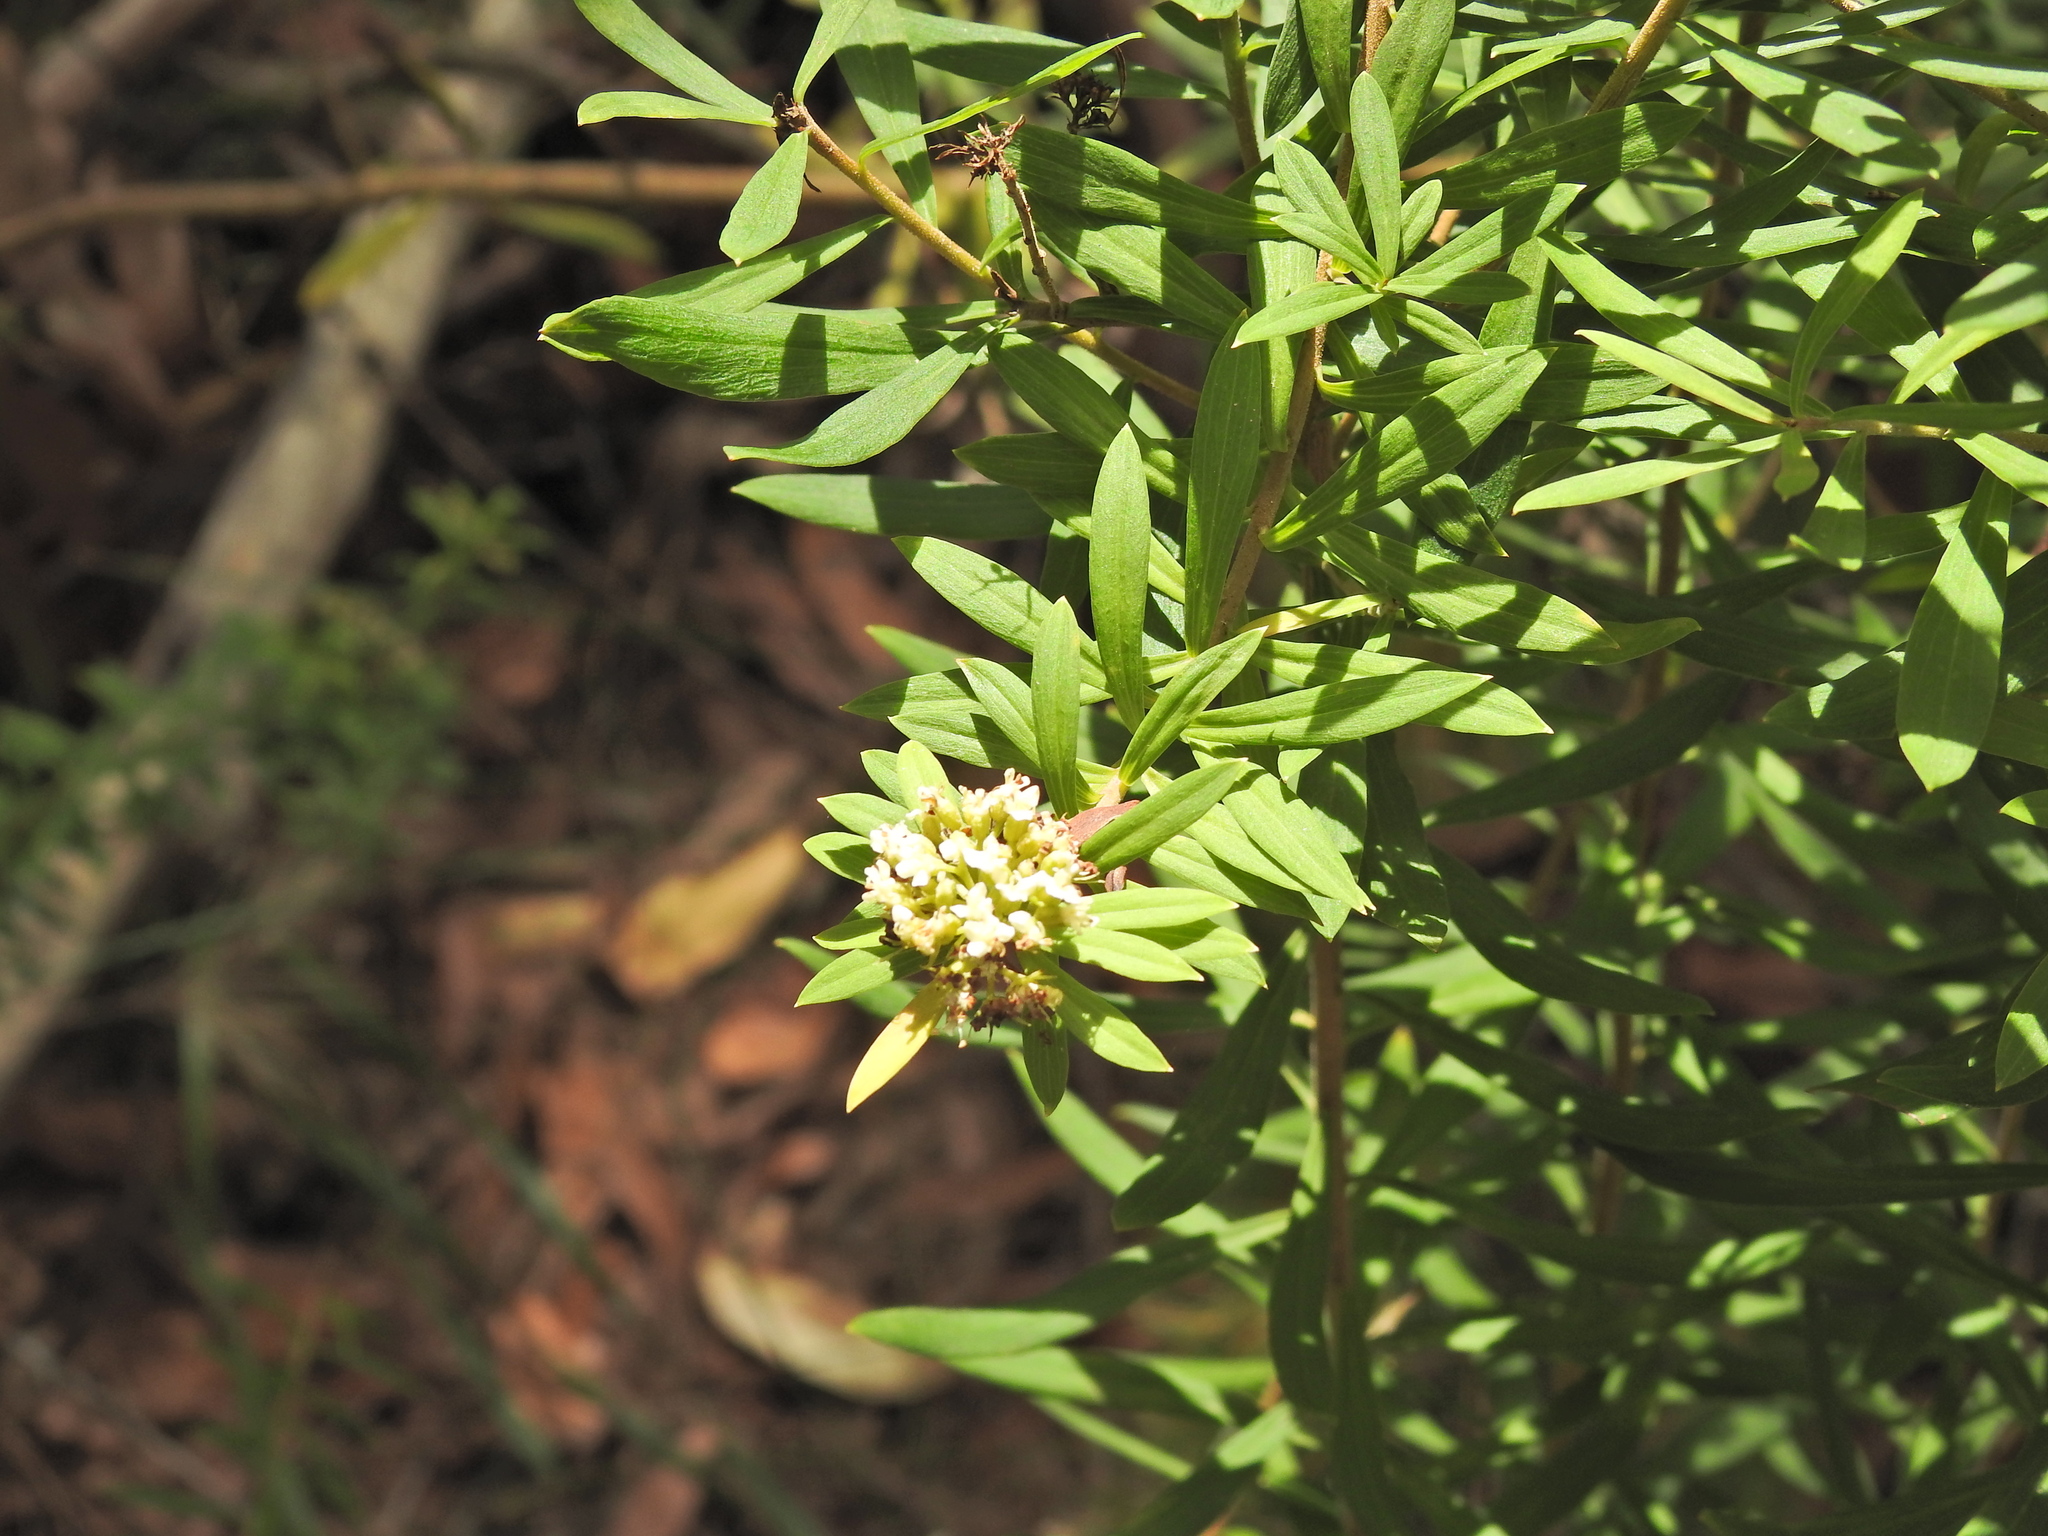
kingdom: Plantae
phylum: Tracheophyta
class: Magnoliopsida
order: Apiales
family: Apiaceae
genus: Platysace
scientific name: Platysace lanceolata
